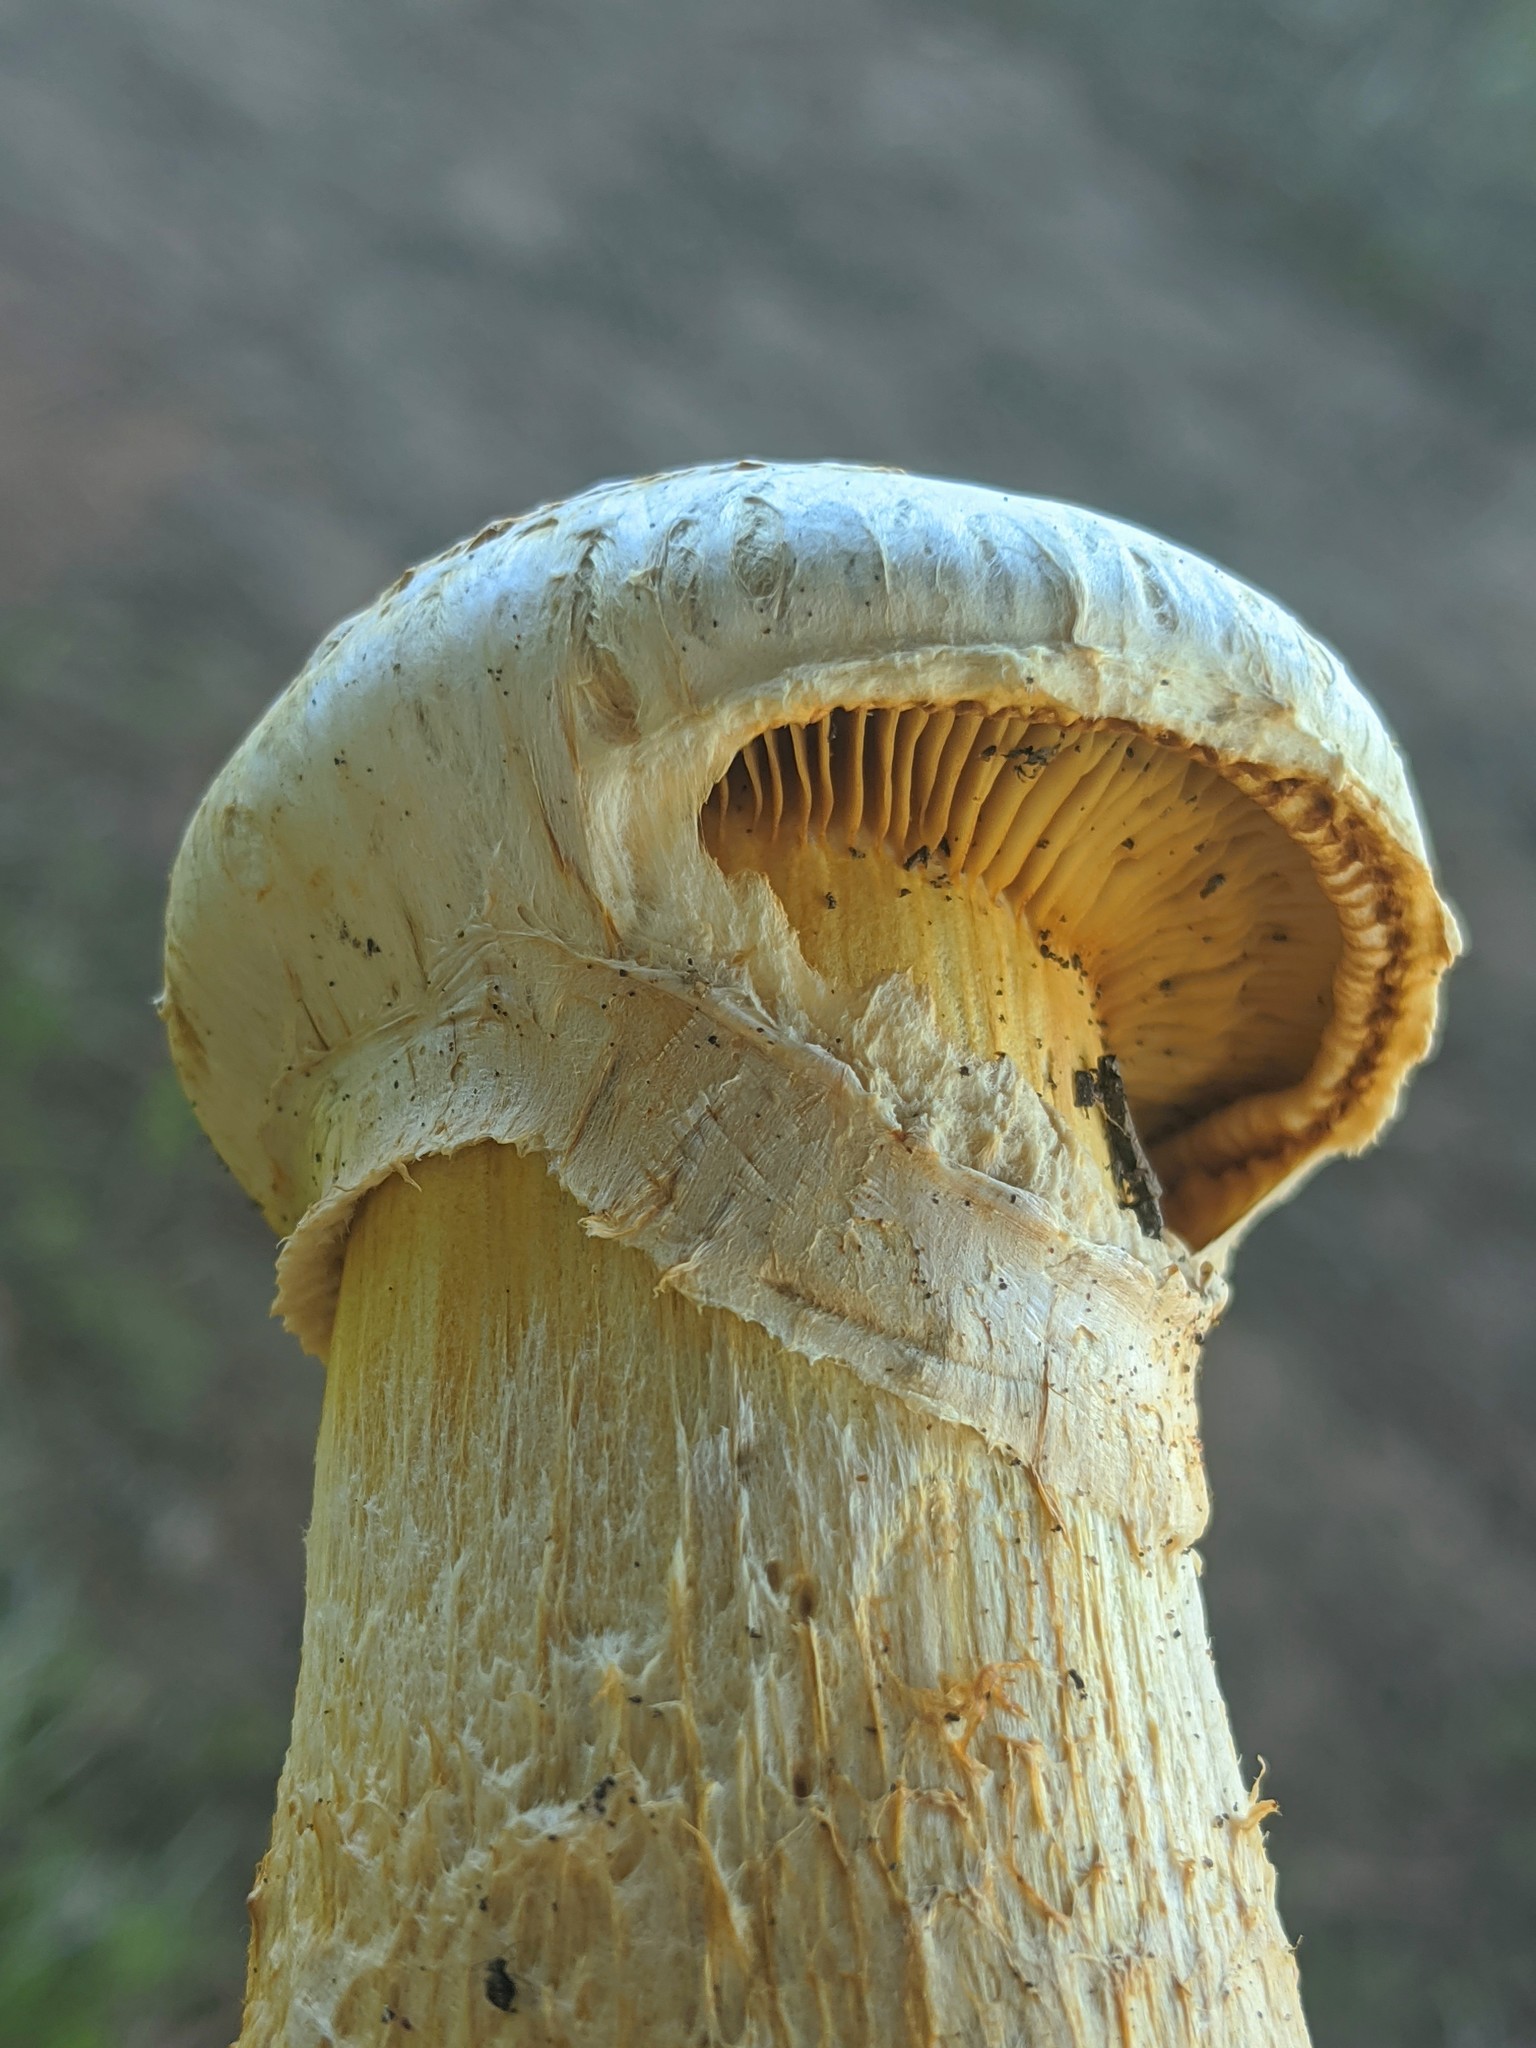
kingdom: Fungi
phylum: Basidiomycota
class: Agaricomycetes
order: Agaricales
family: Hymenogastraceae
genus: Gymnopilus
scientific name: Gymnopilus ventricosus
